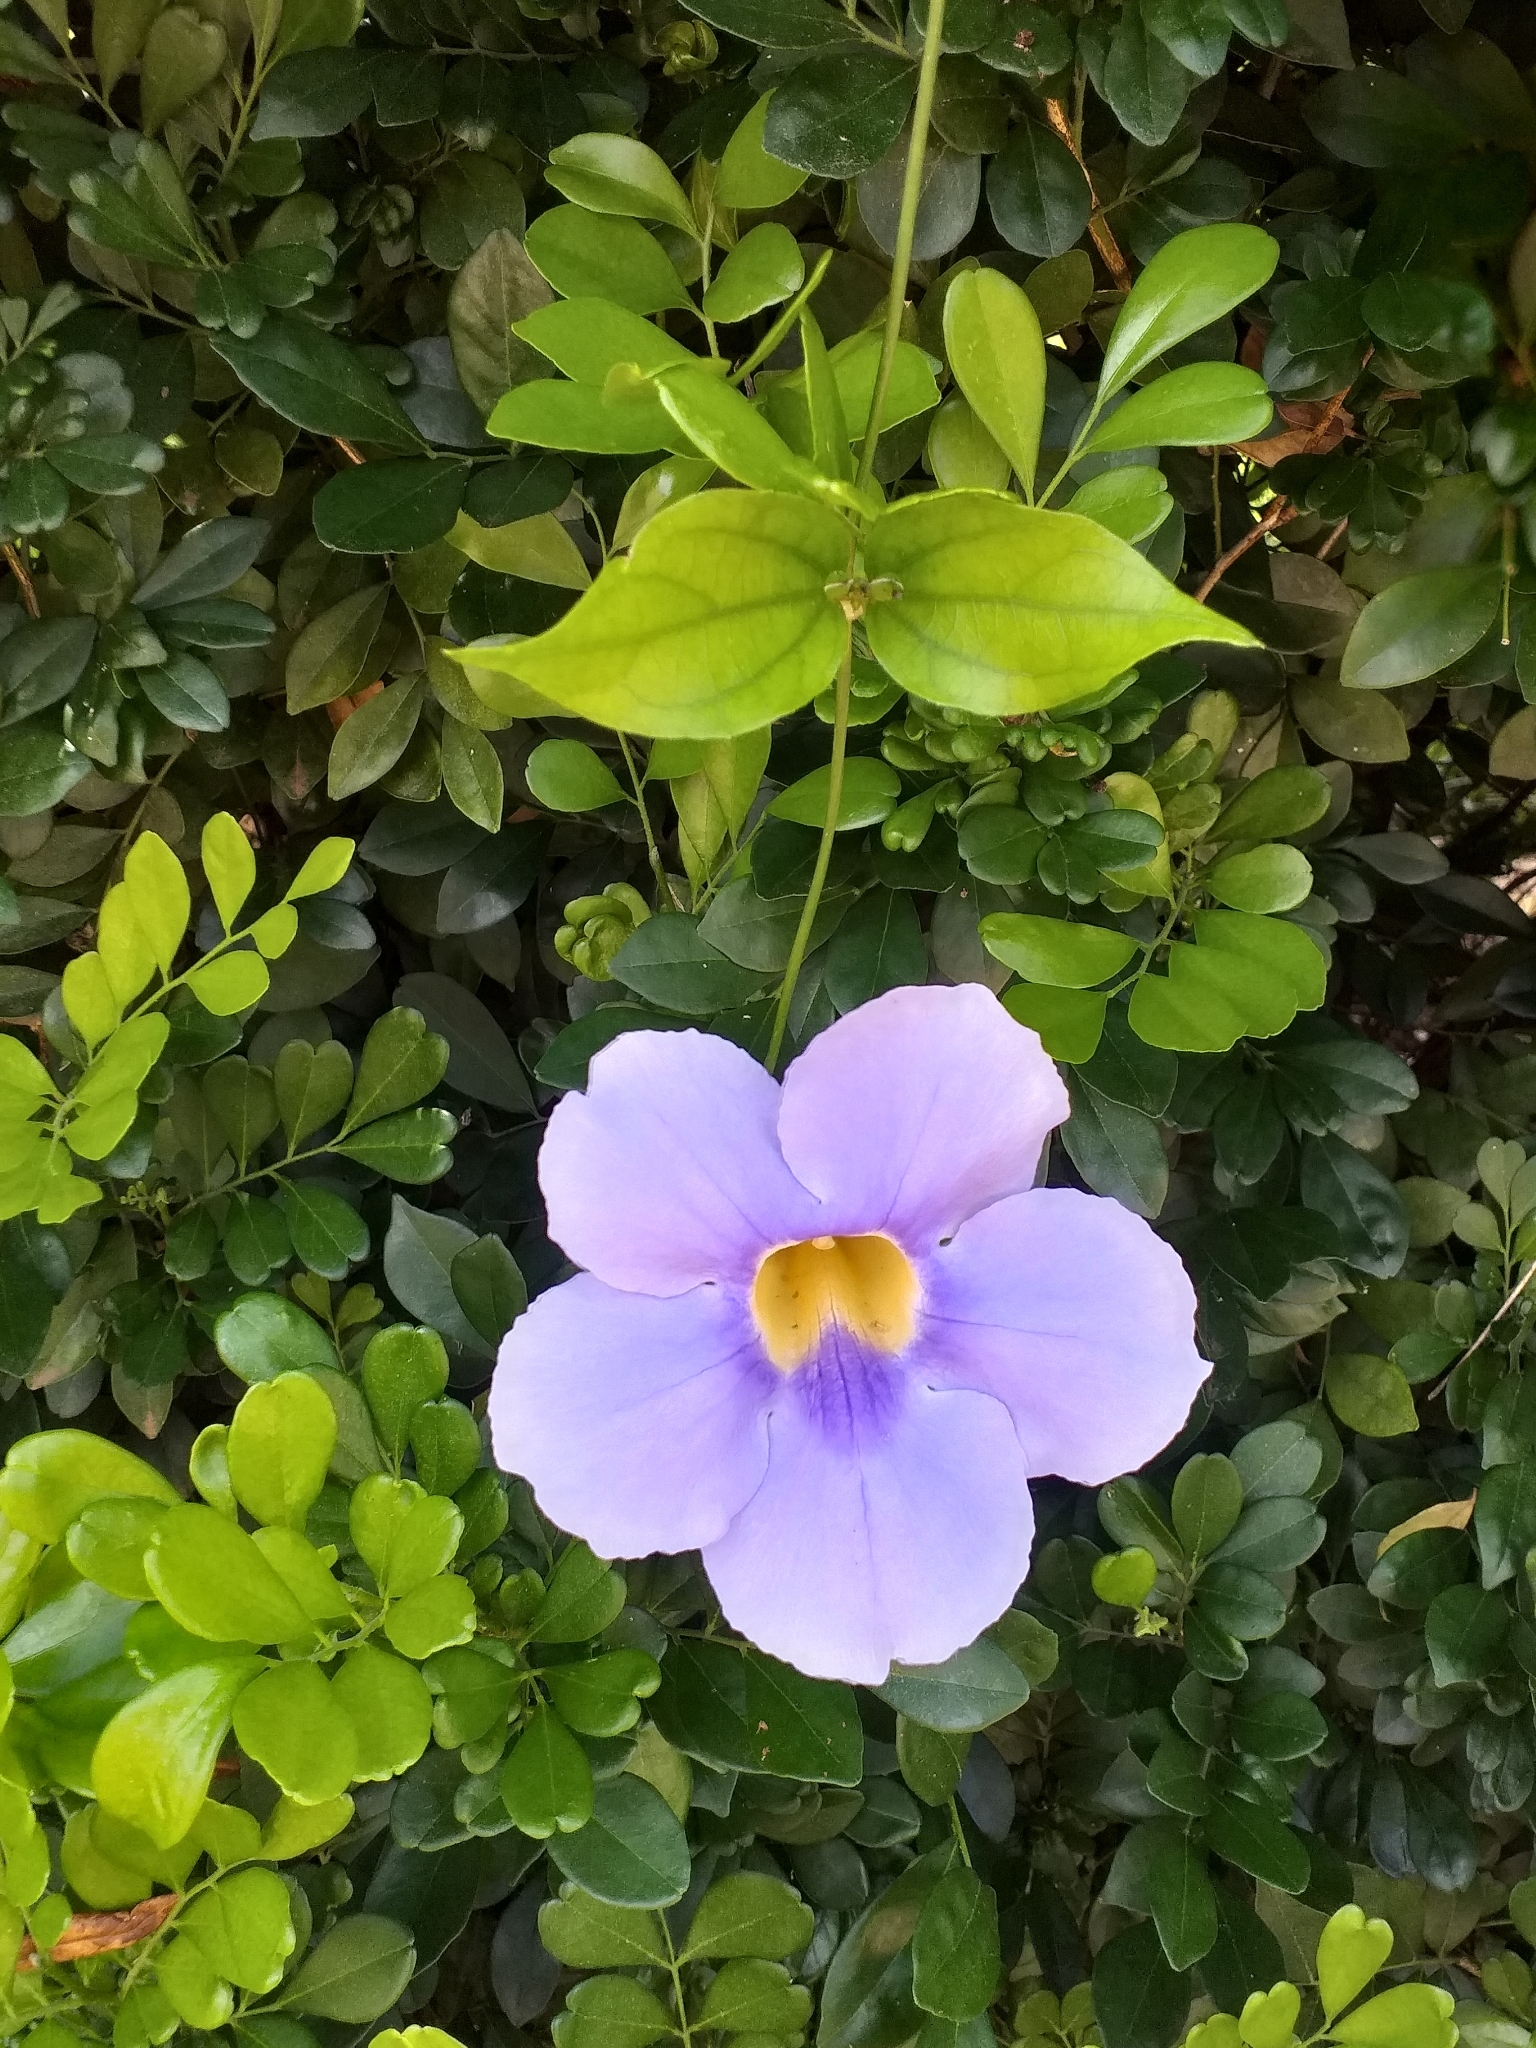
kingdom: Plantae
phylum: Tracheophyta
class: Magnoliopsida
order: Lamiales
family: Acanthaceae
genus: Thunbergia
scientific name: Thunbergia grandiflora
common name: Bengal trumpet
